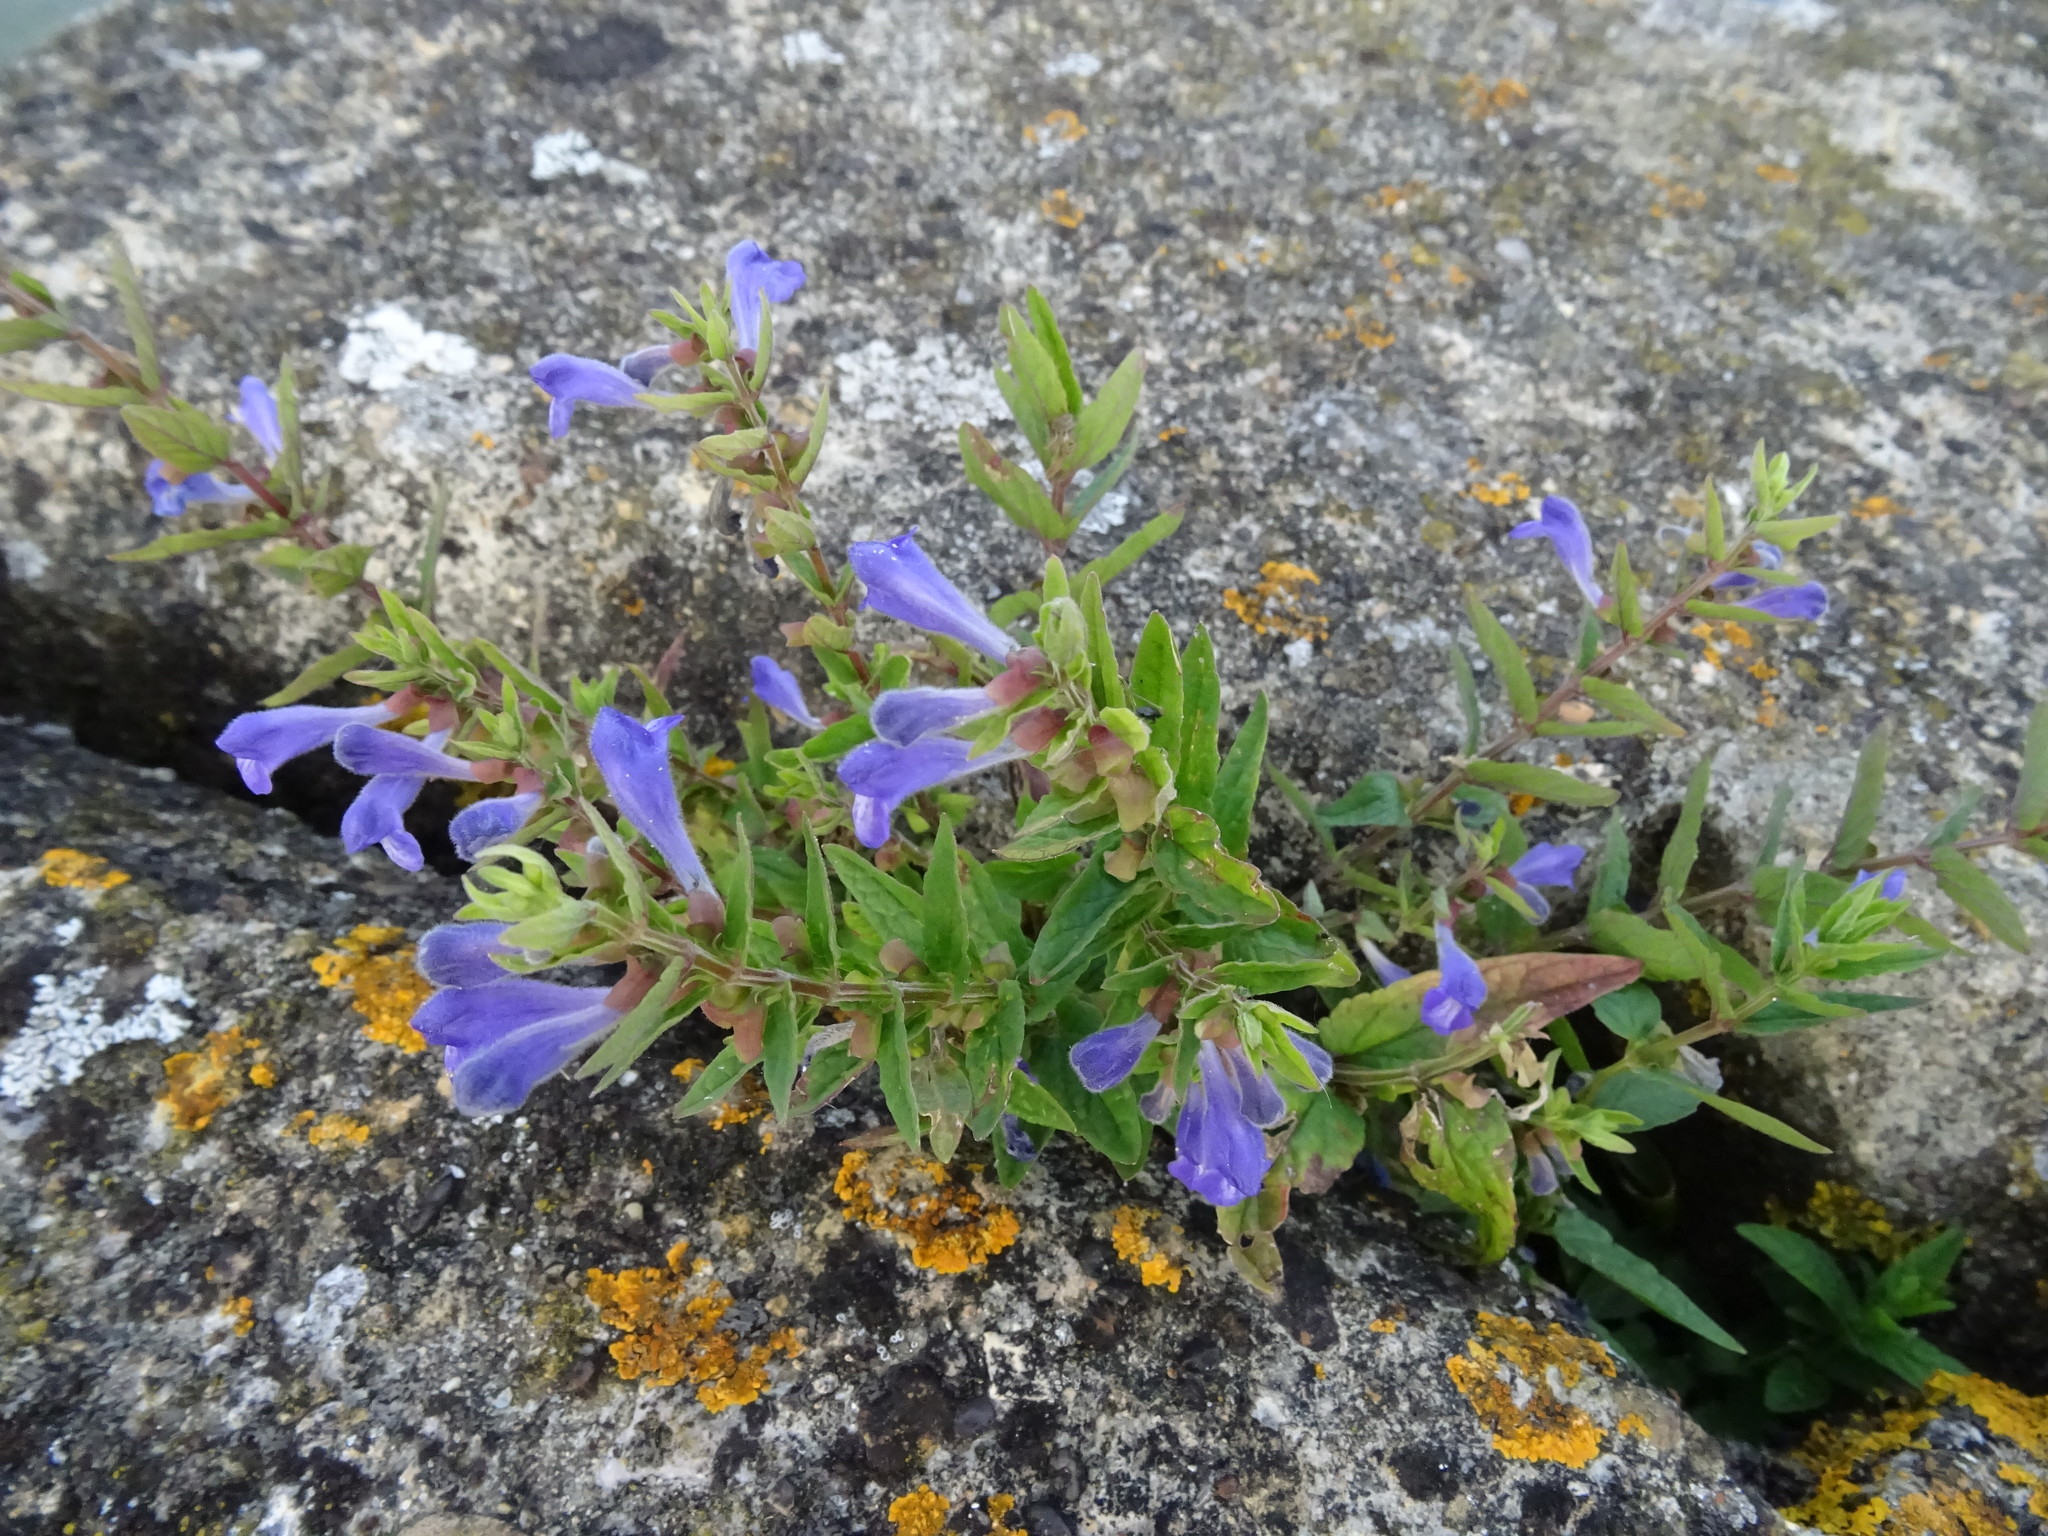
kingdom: Plantae
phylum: Tracheophyta
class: Magnoliopsida
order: Lamiales
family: Lamiaceae
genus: Scutellaria
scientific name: Scutellaria galericulata
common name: Skullcap
